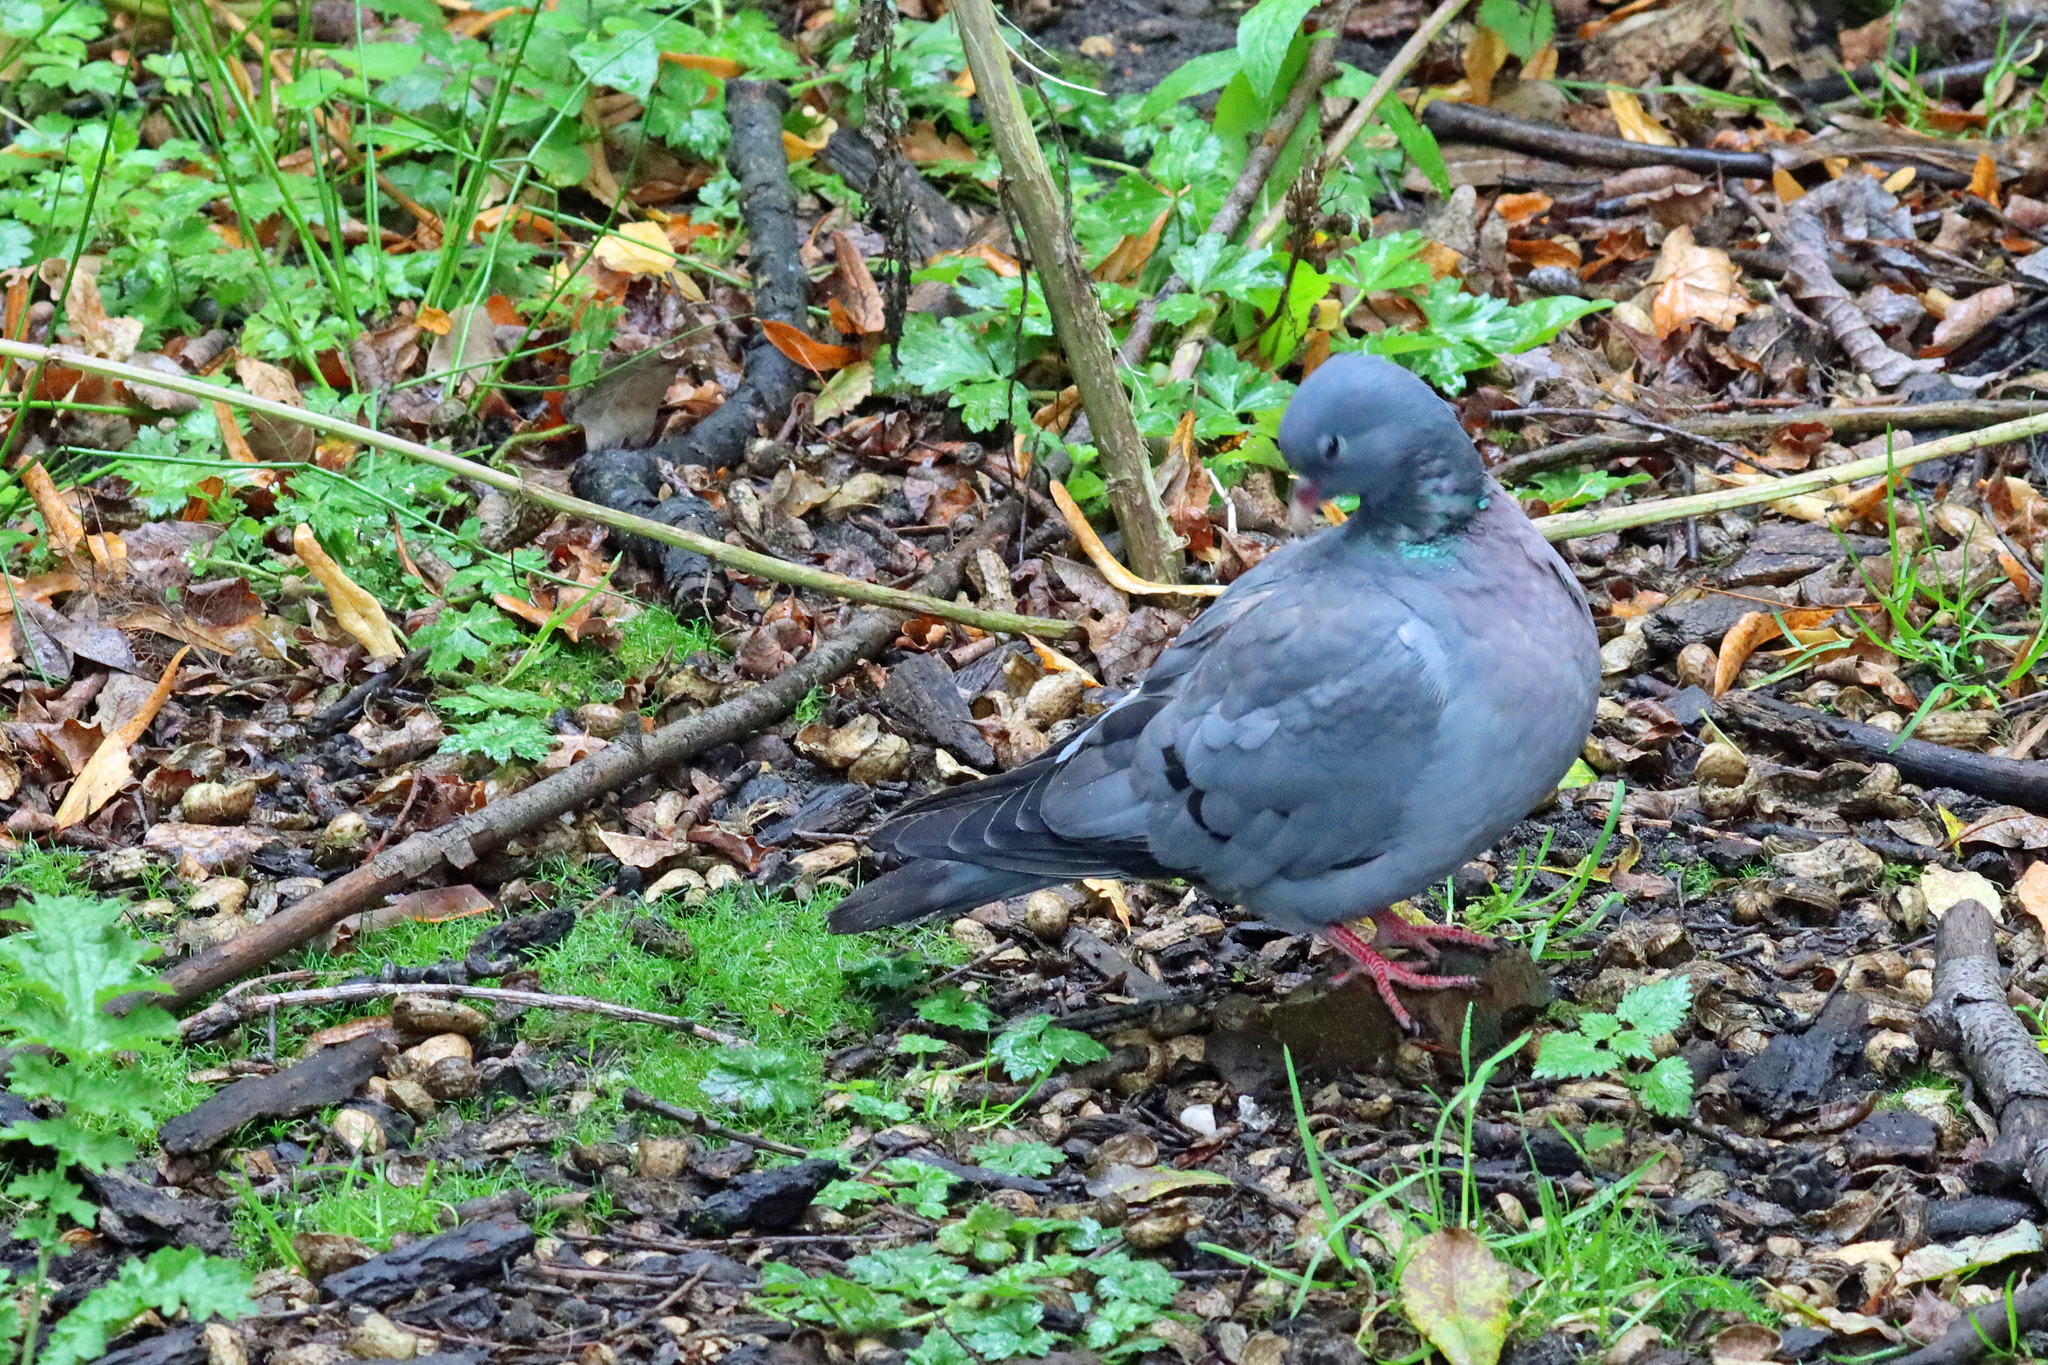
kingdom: Animalia
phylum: Chordata
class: Aves
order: Columbiformes
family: Columbidae
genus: Columba
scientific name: Columba oenas
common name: Stock dove
